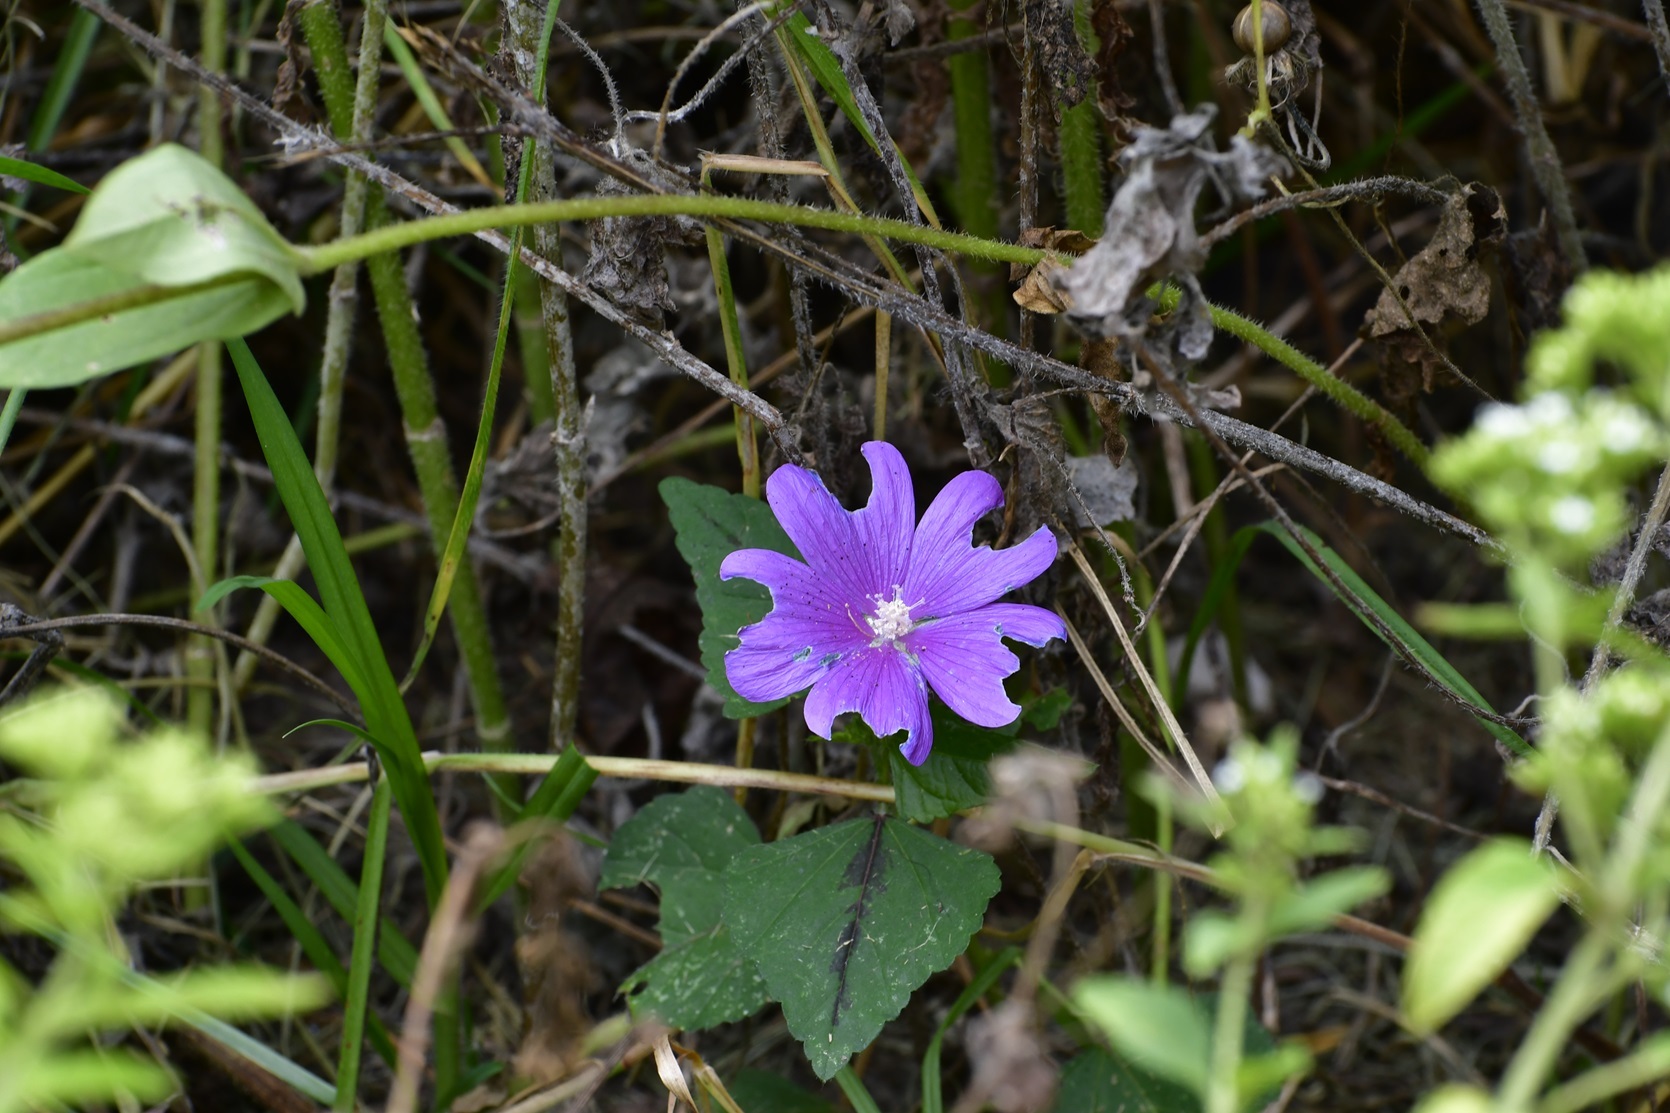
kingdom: Plantae
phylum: Tracheophyta
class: Magnoliopsida
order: Malvales
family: Malvaceae
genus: Anoda
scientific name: Anoda cristata
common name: Spurred anoda
